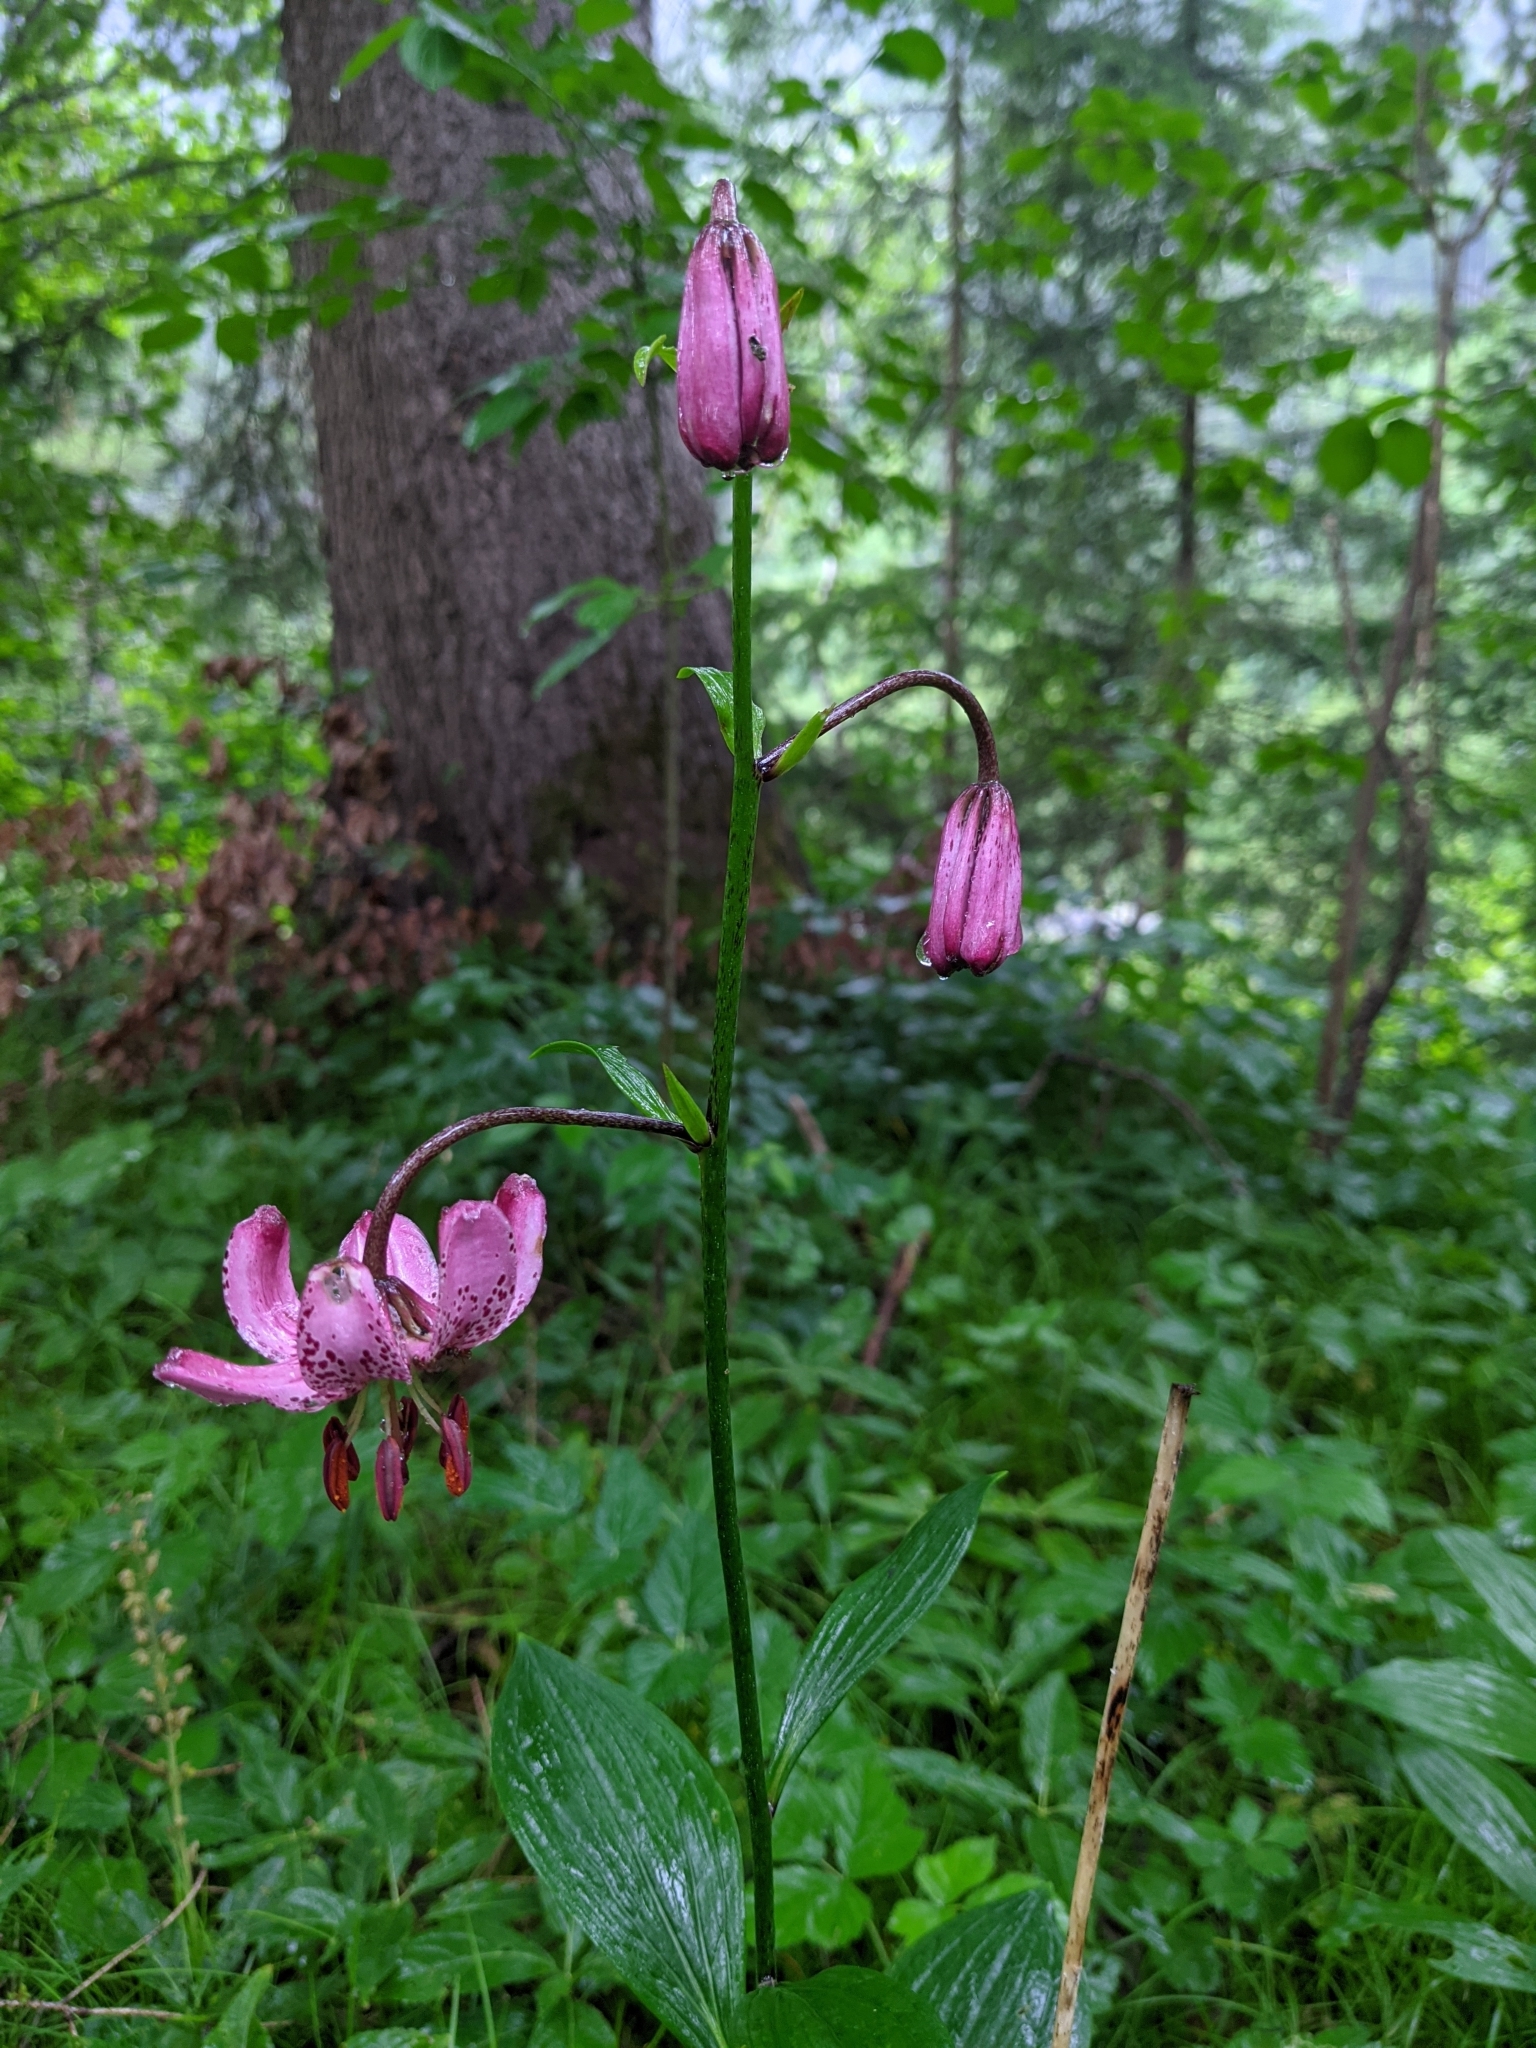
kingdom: Plantae
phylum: Tracheophyta
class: Liliopsida
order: Liliales
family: Liliaceae
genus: Lilium
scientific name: Lilium martagon
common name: Martagon lily
